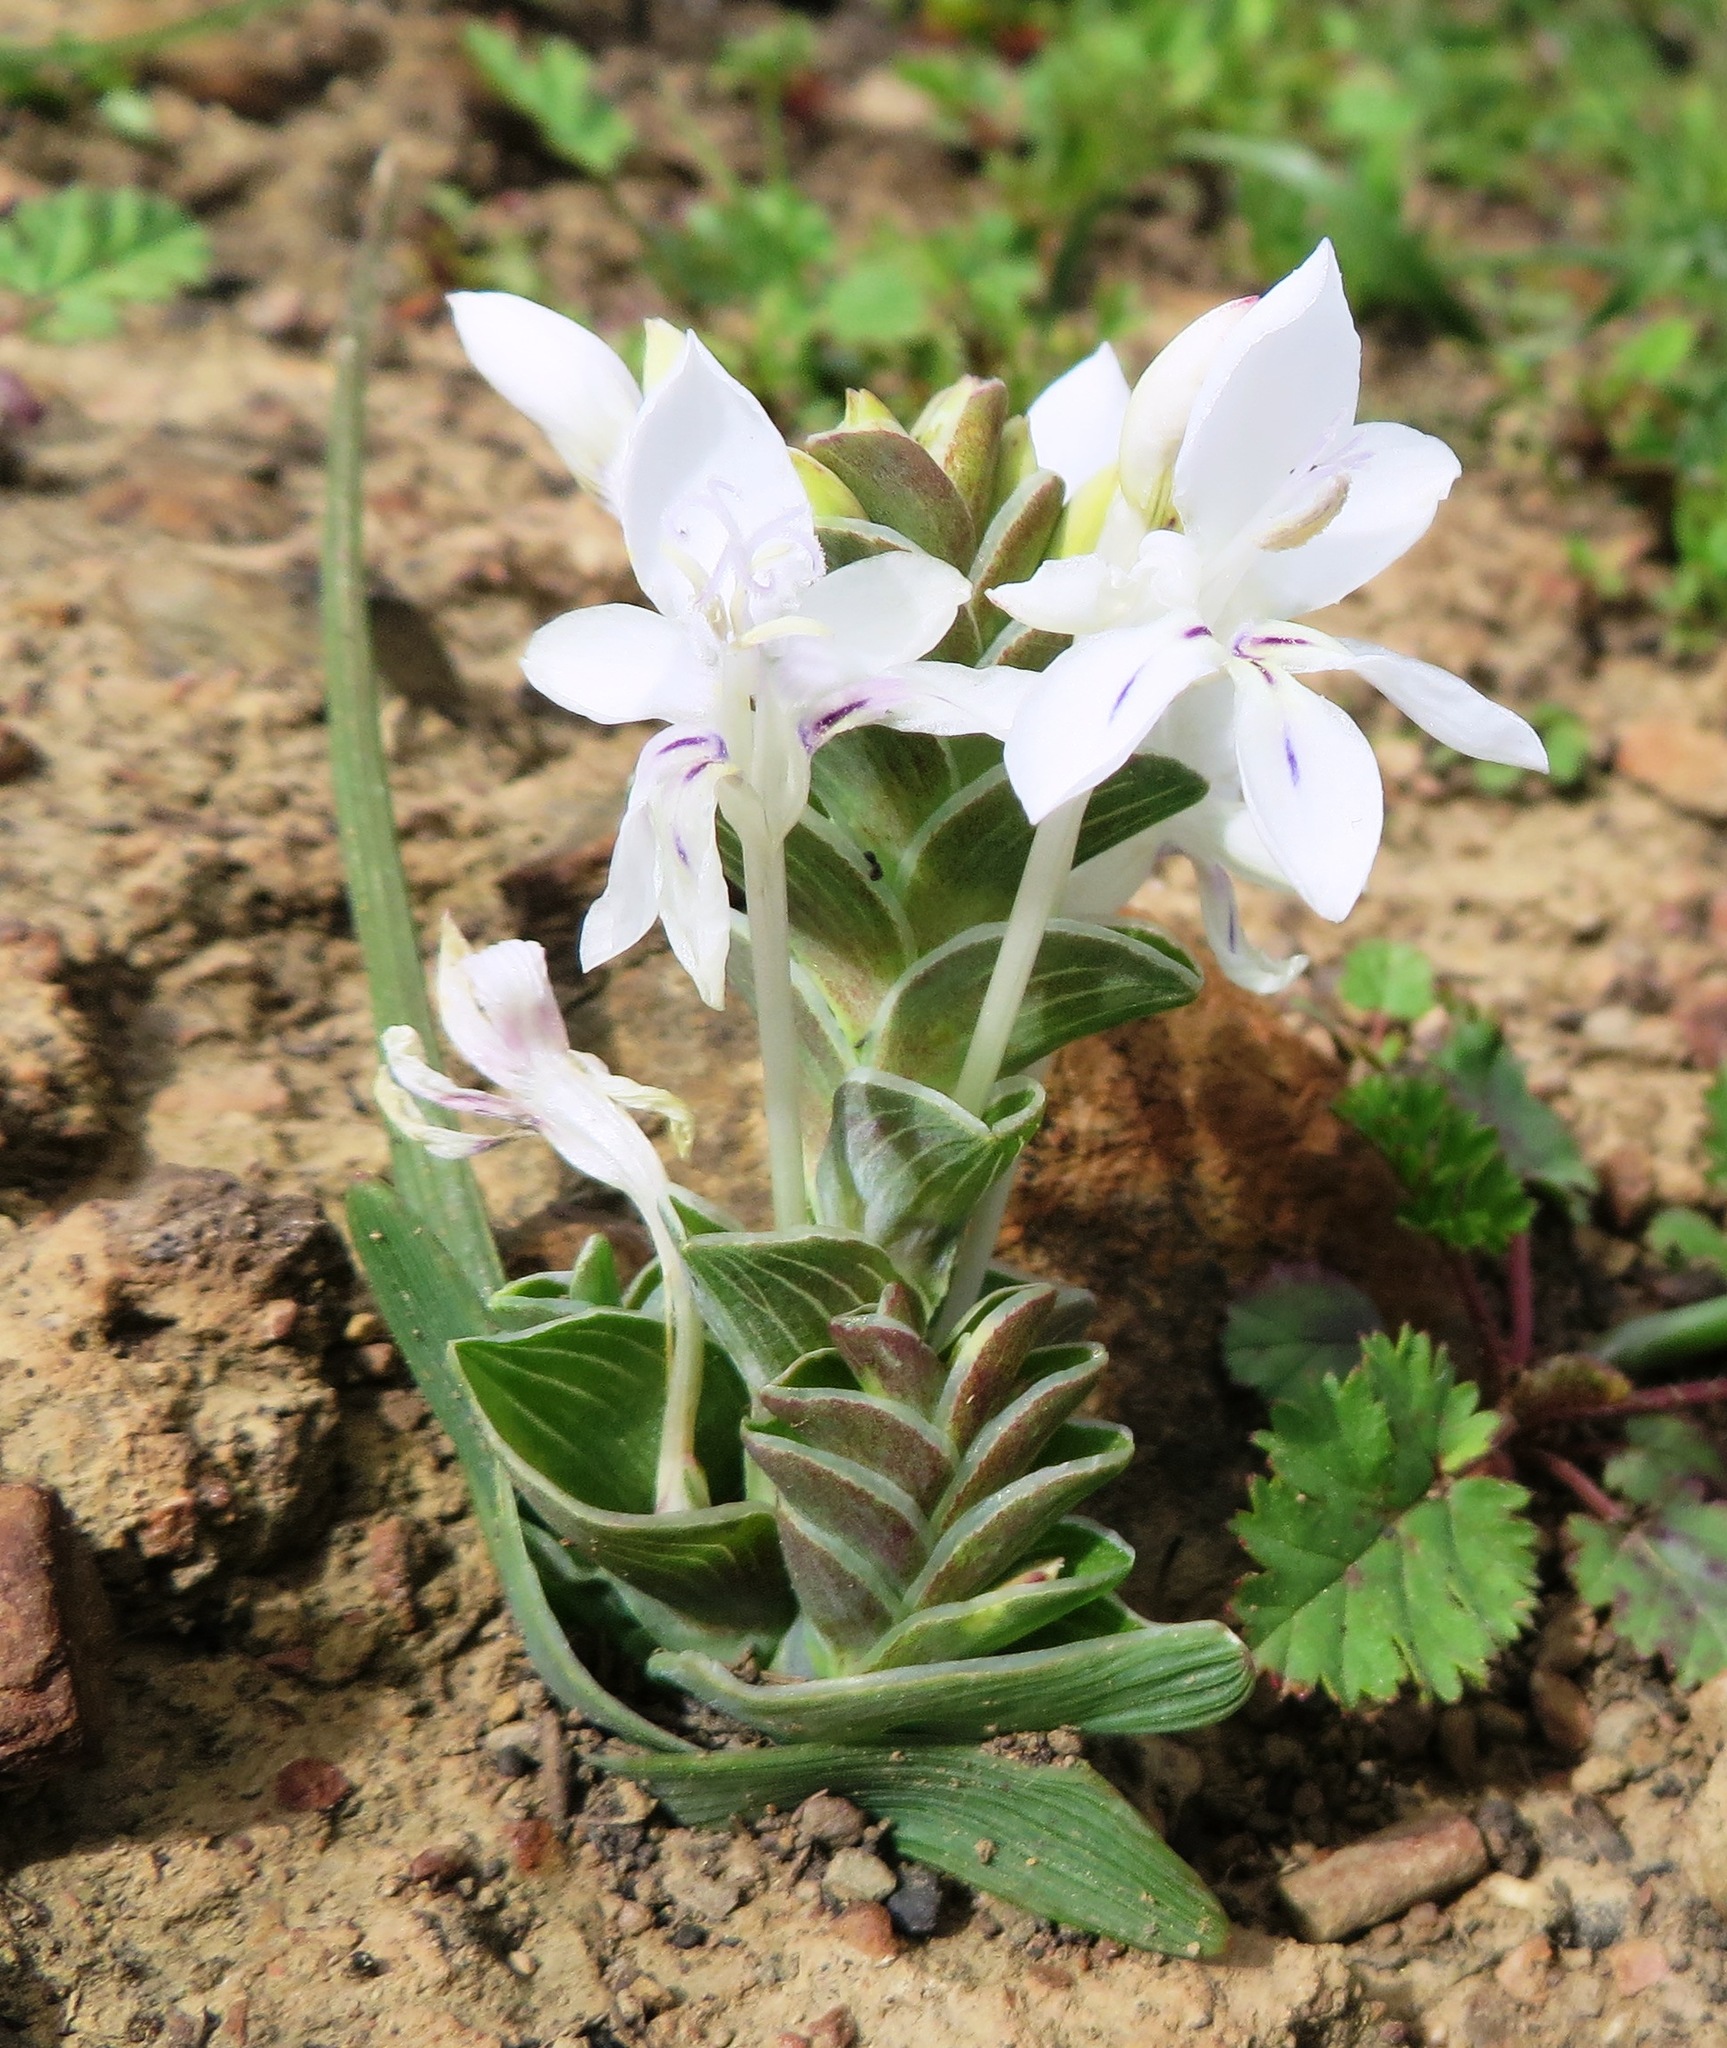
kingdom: Plantae
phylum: Tracheophyta
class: Liliopsida
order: Asparagales
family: Iridaceae
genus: Lapeirousia
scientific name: Lapeirousia pyramidalis
